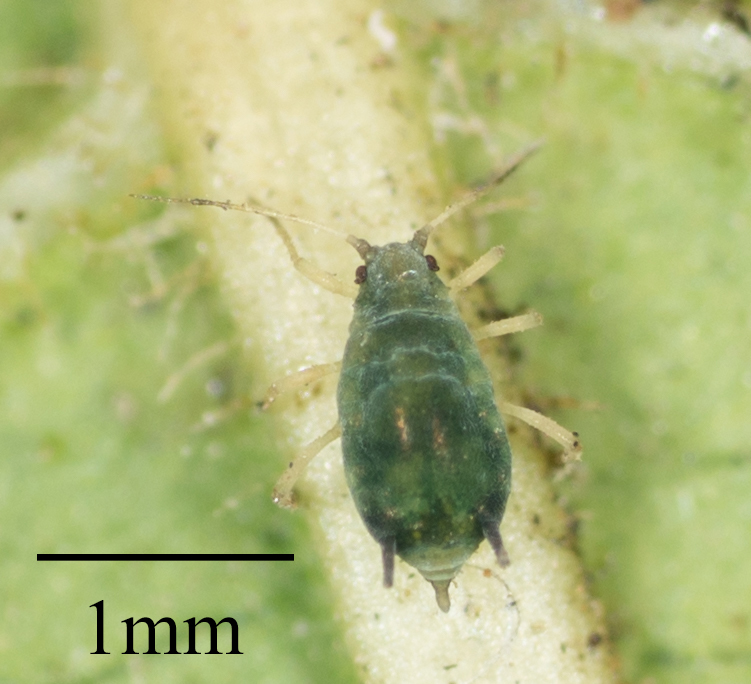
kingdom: Animalia
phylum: Arthropoda
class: Insecta
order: Hemiptera
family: Aphididae
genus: Aphis
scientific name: Aphis gossypii
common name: Melon aphid
